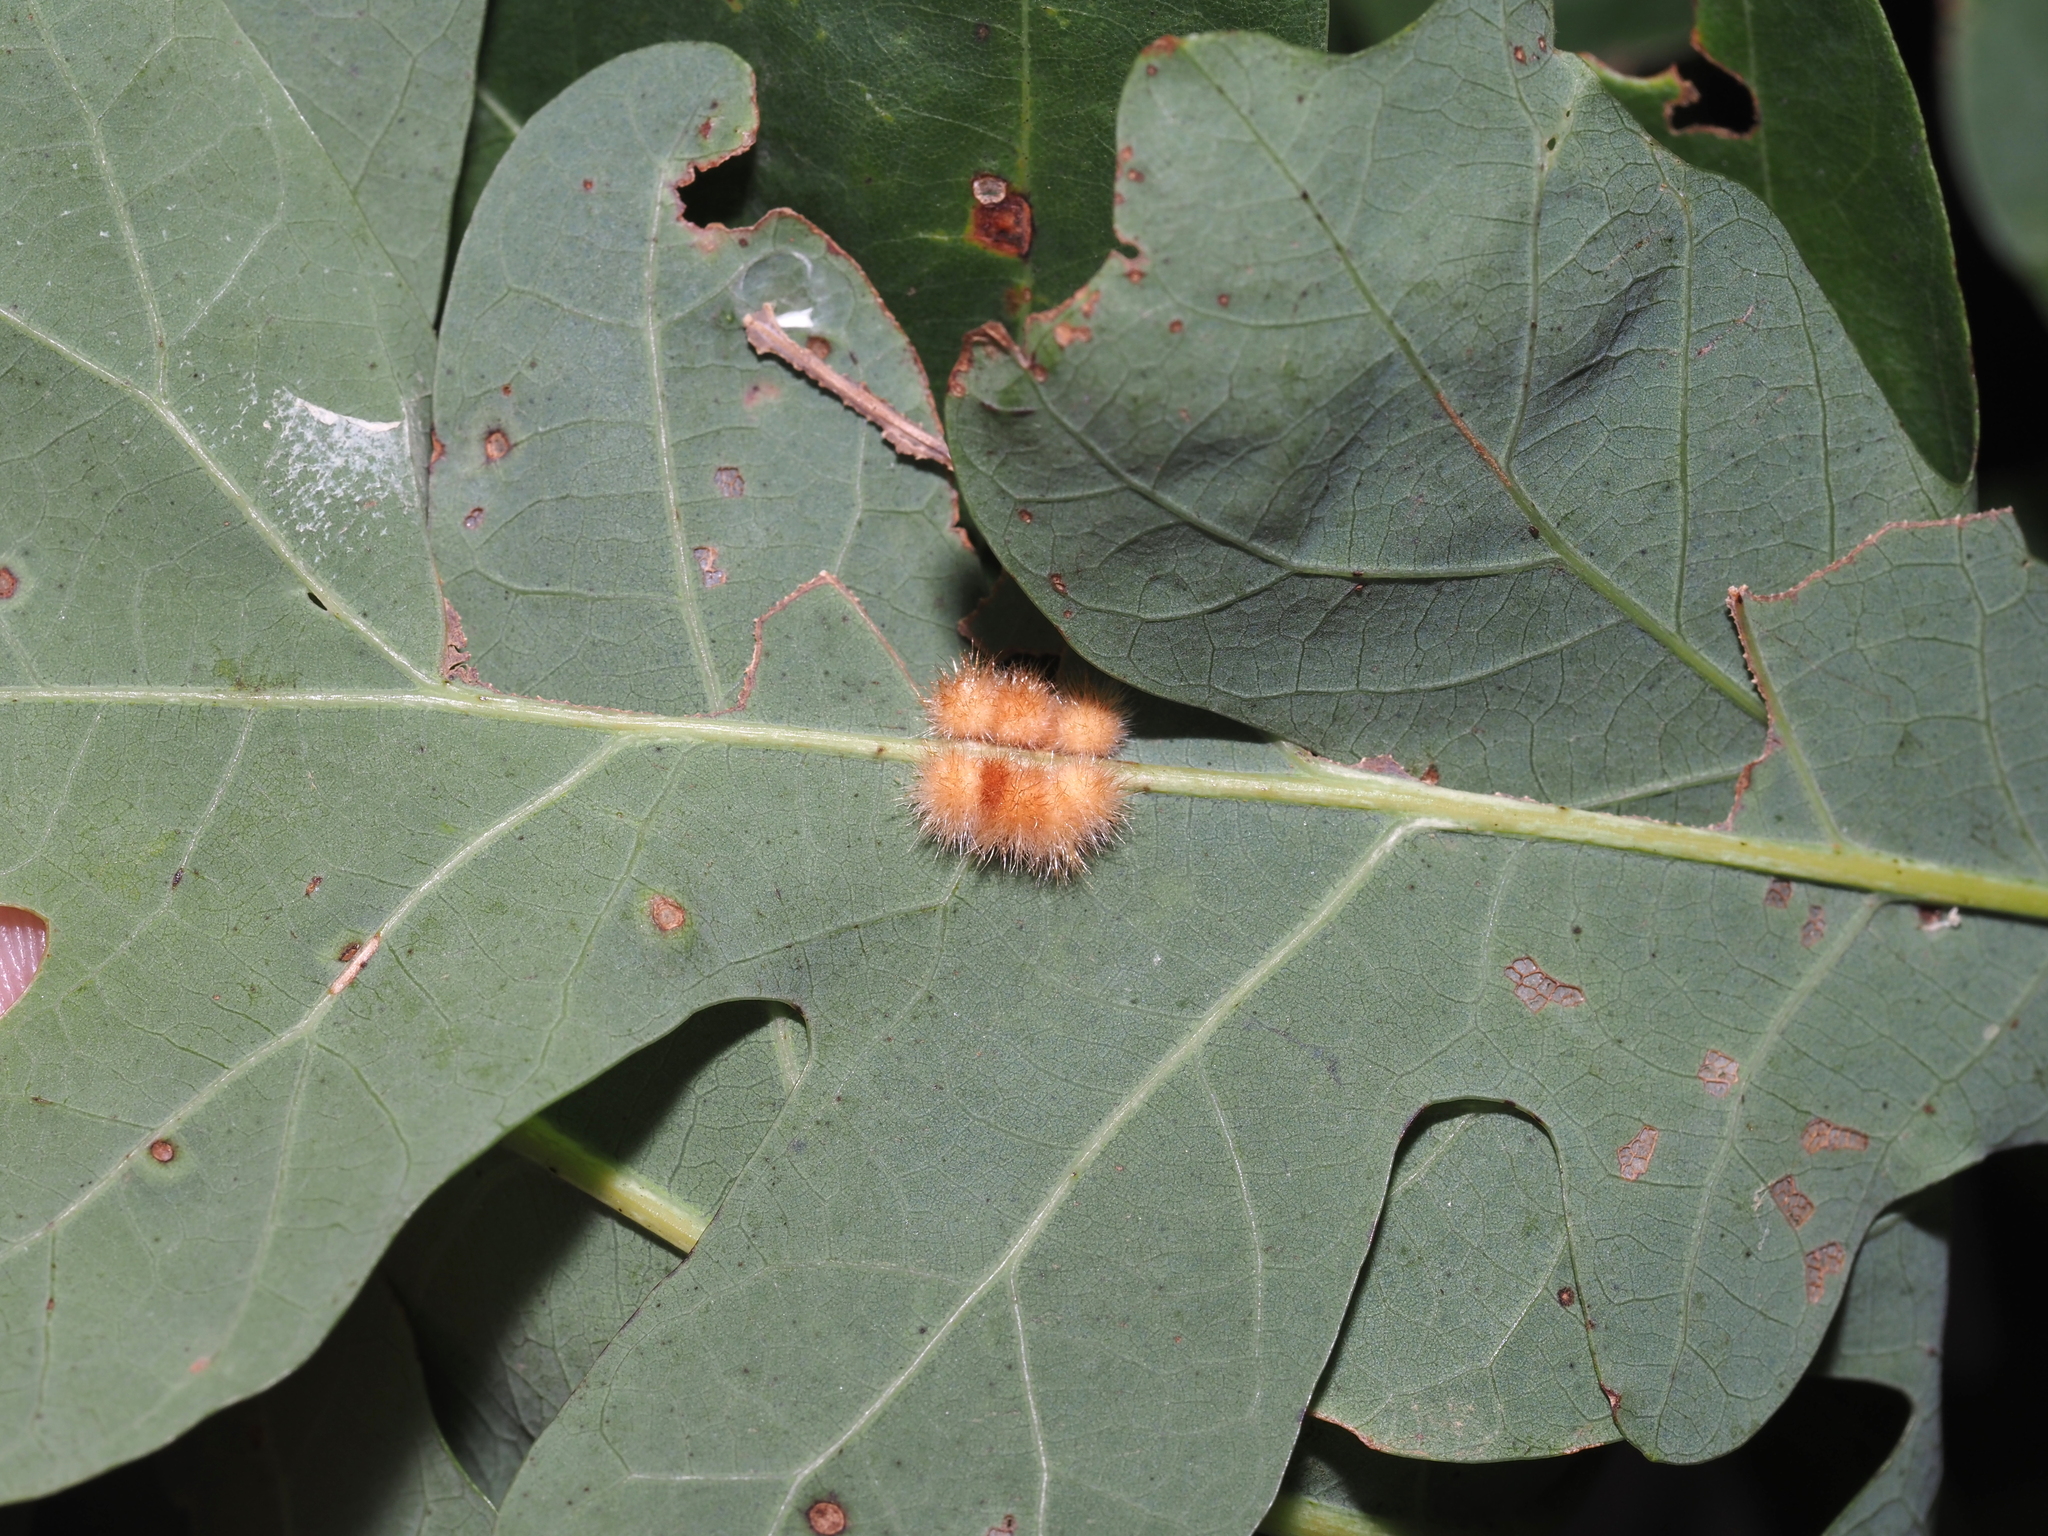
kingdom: Animalia
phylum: Arthropoda
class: Insecta
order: Hymenoptera
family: Cynipidae
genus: Andricus
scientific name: Andricus
